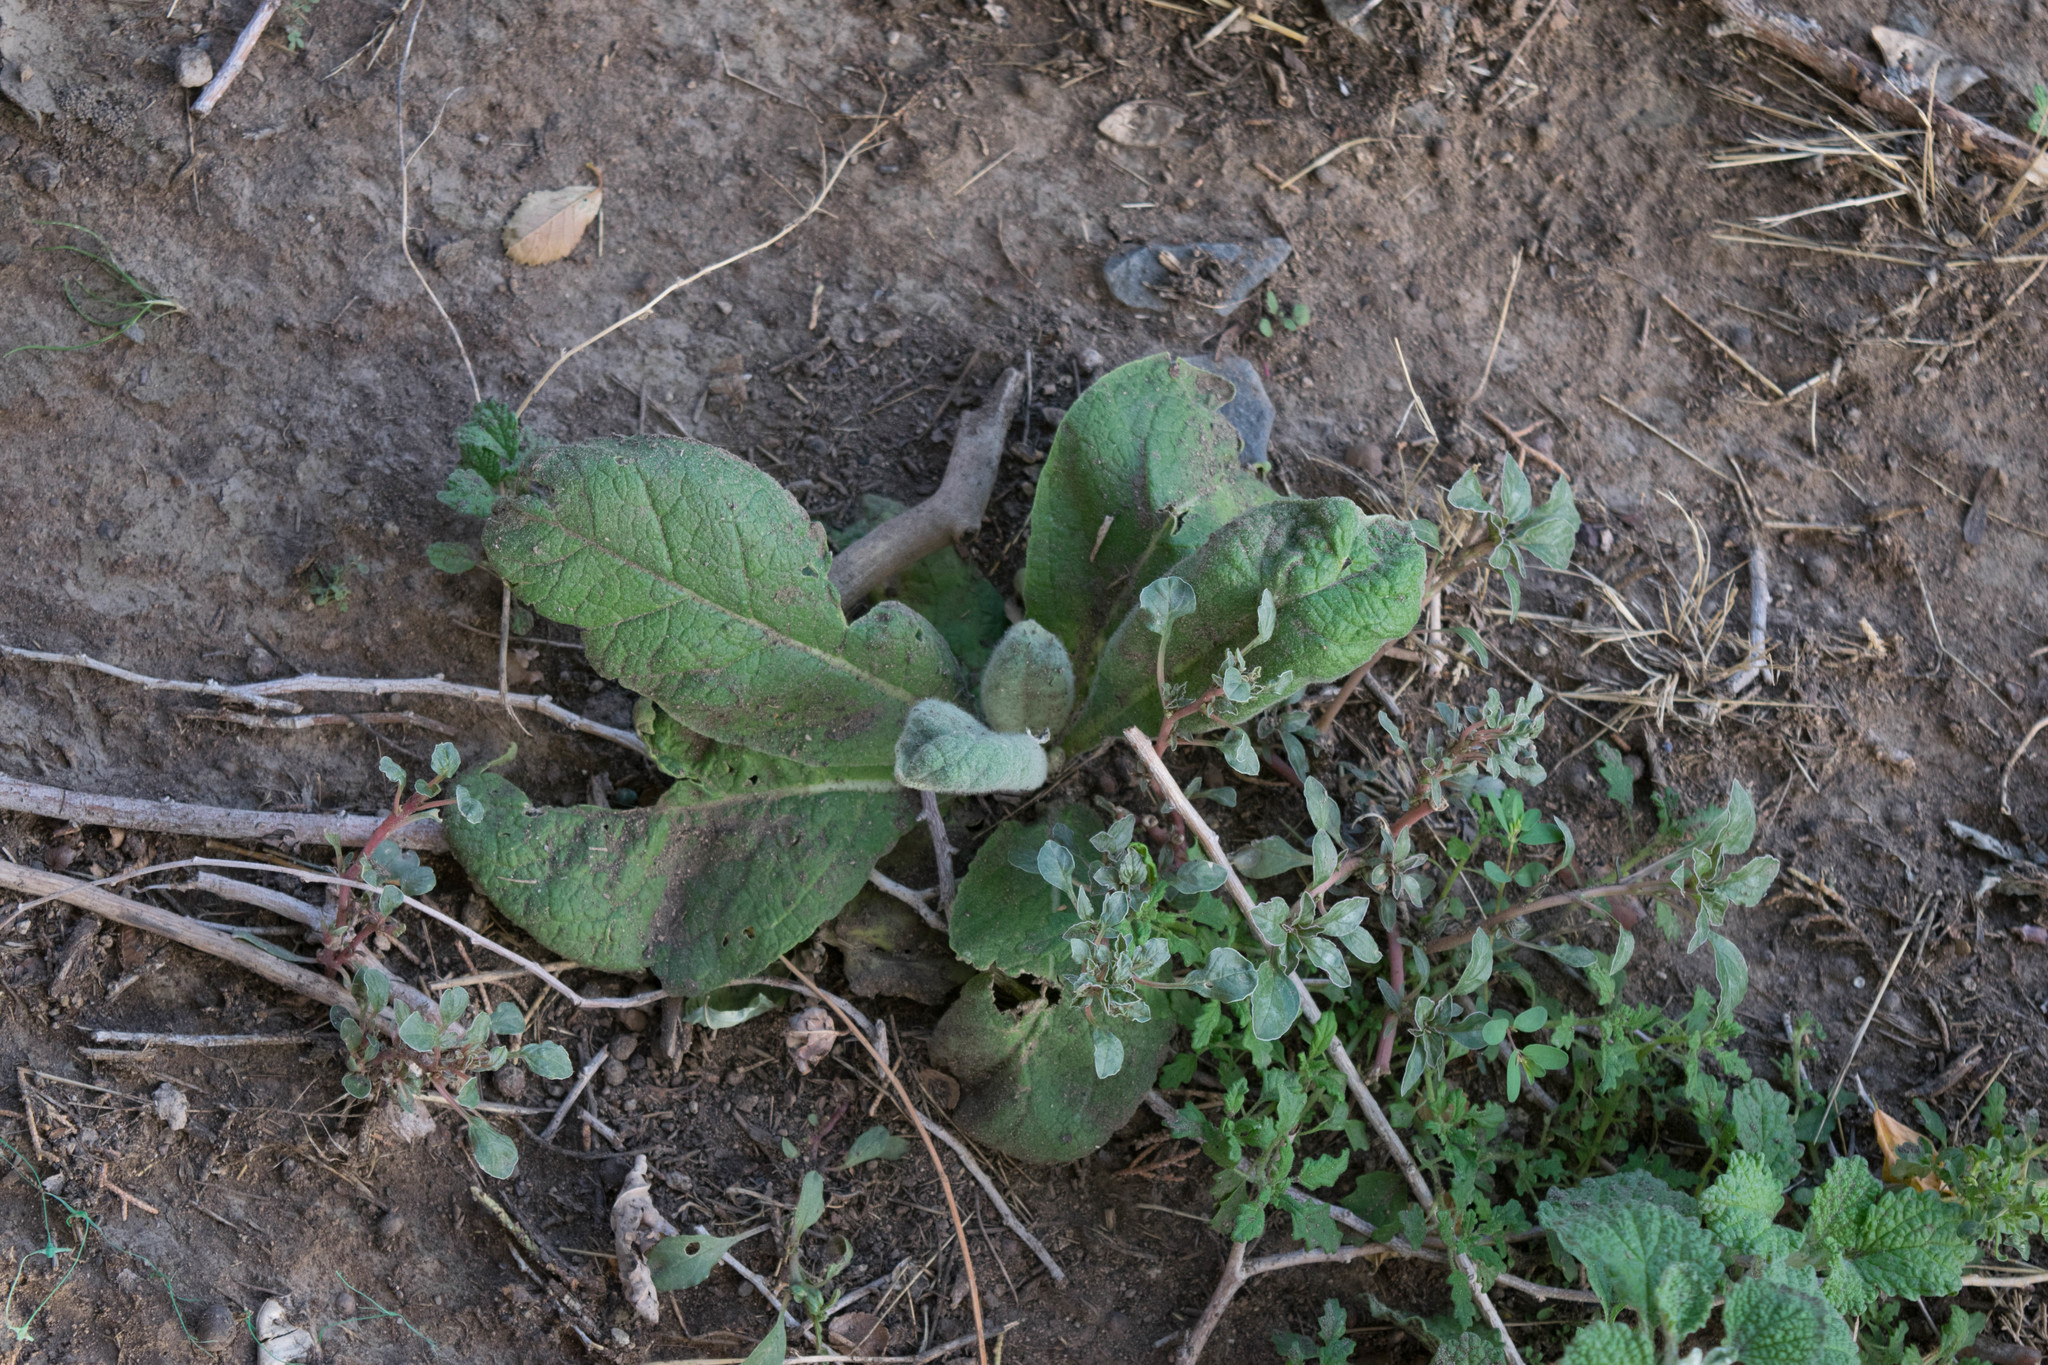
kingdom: Plantae
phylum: Tracheophyta
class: Magnoliopsida
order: Lamiales
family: Scrophulariaceae
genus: Verbascum
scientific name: Verbascum thapsus
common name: Common mullein
